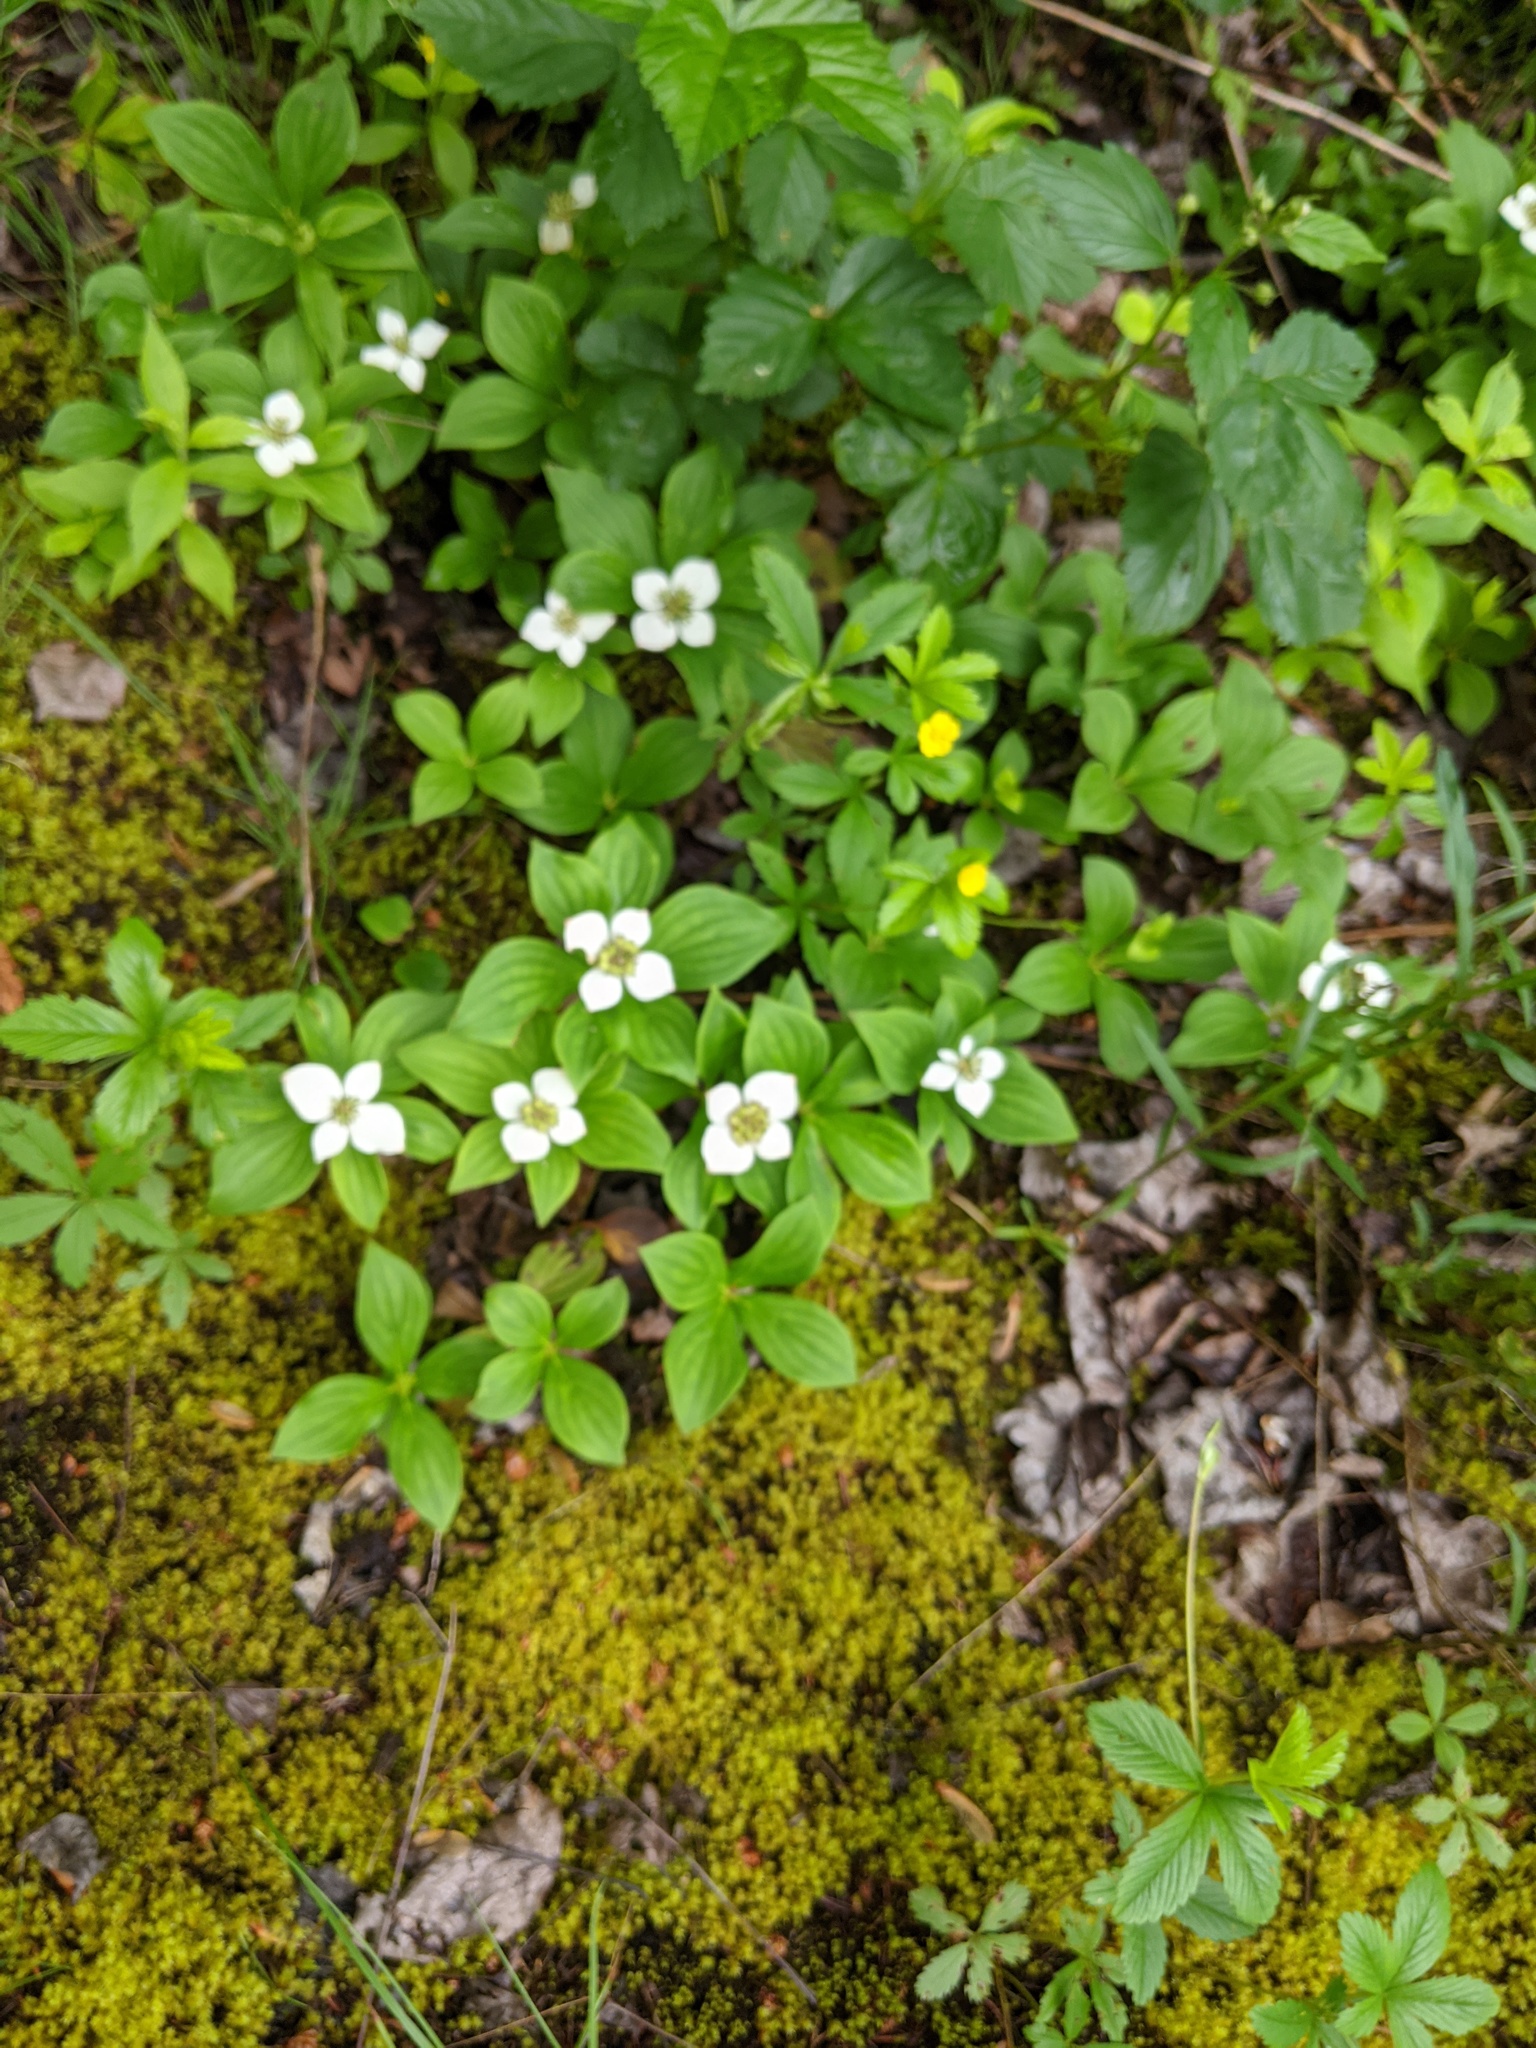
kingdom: Plantae
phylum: Tracheophyta
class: Magnoliopsida
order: Cornales
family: Cornaceae
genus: Cornus
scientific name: Cornus canadensis
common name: Creeping dogwood
